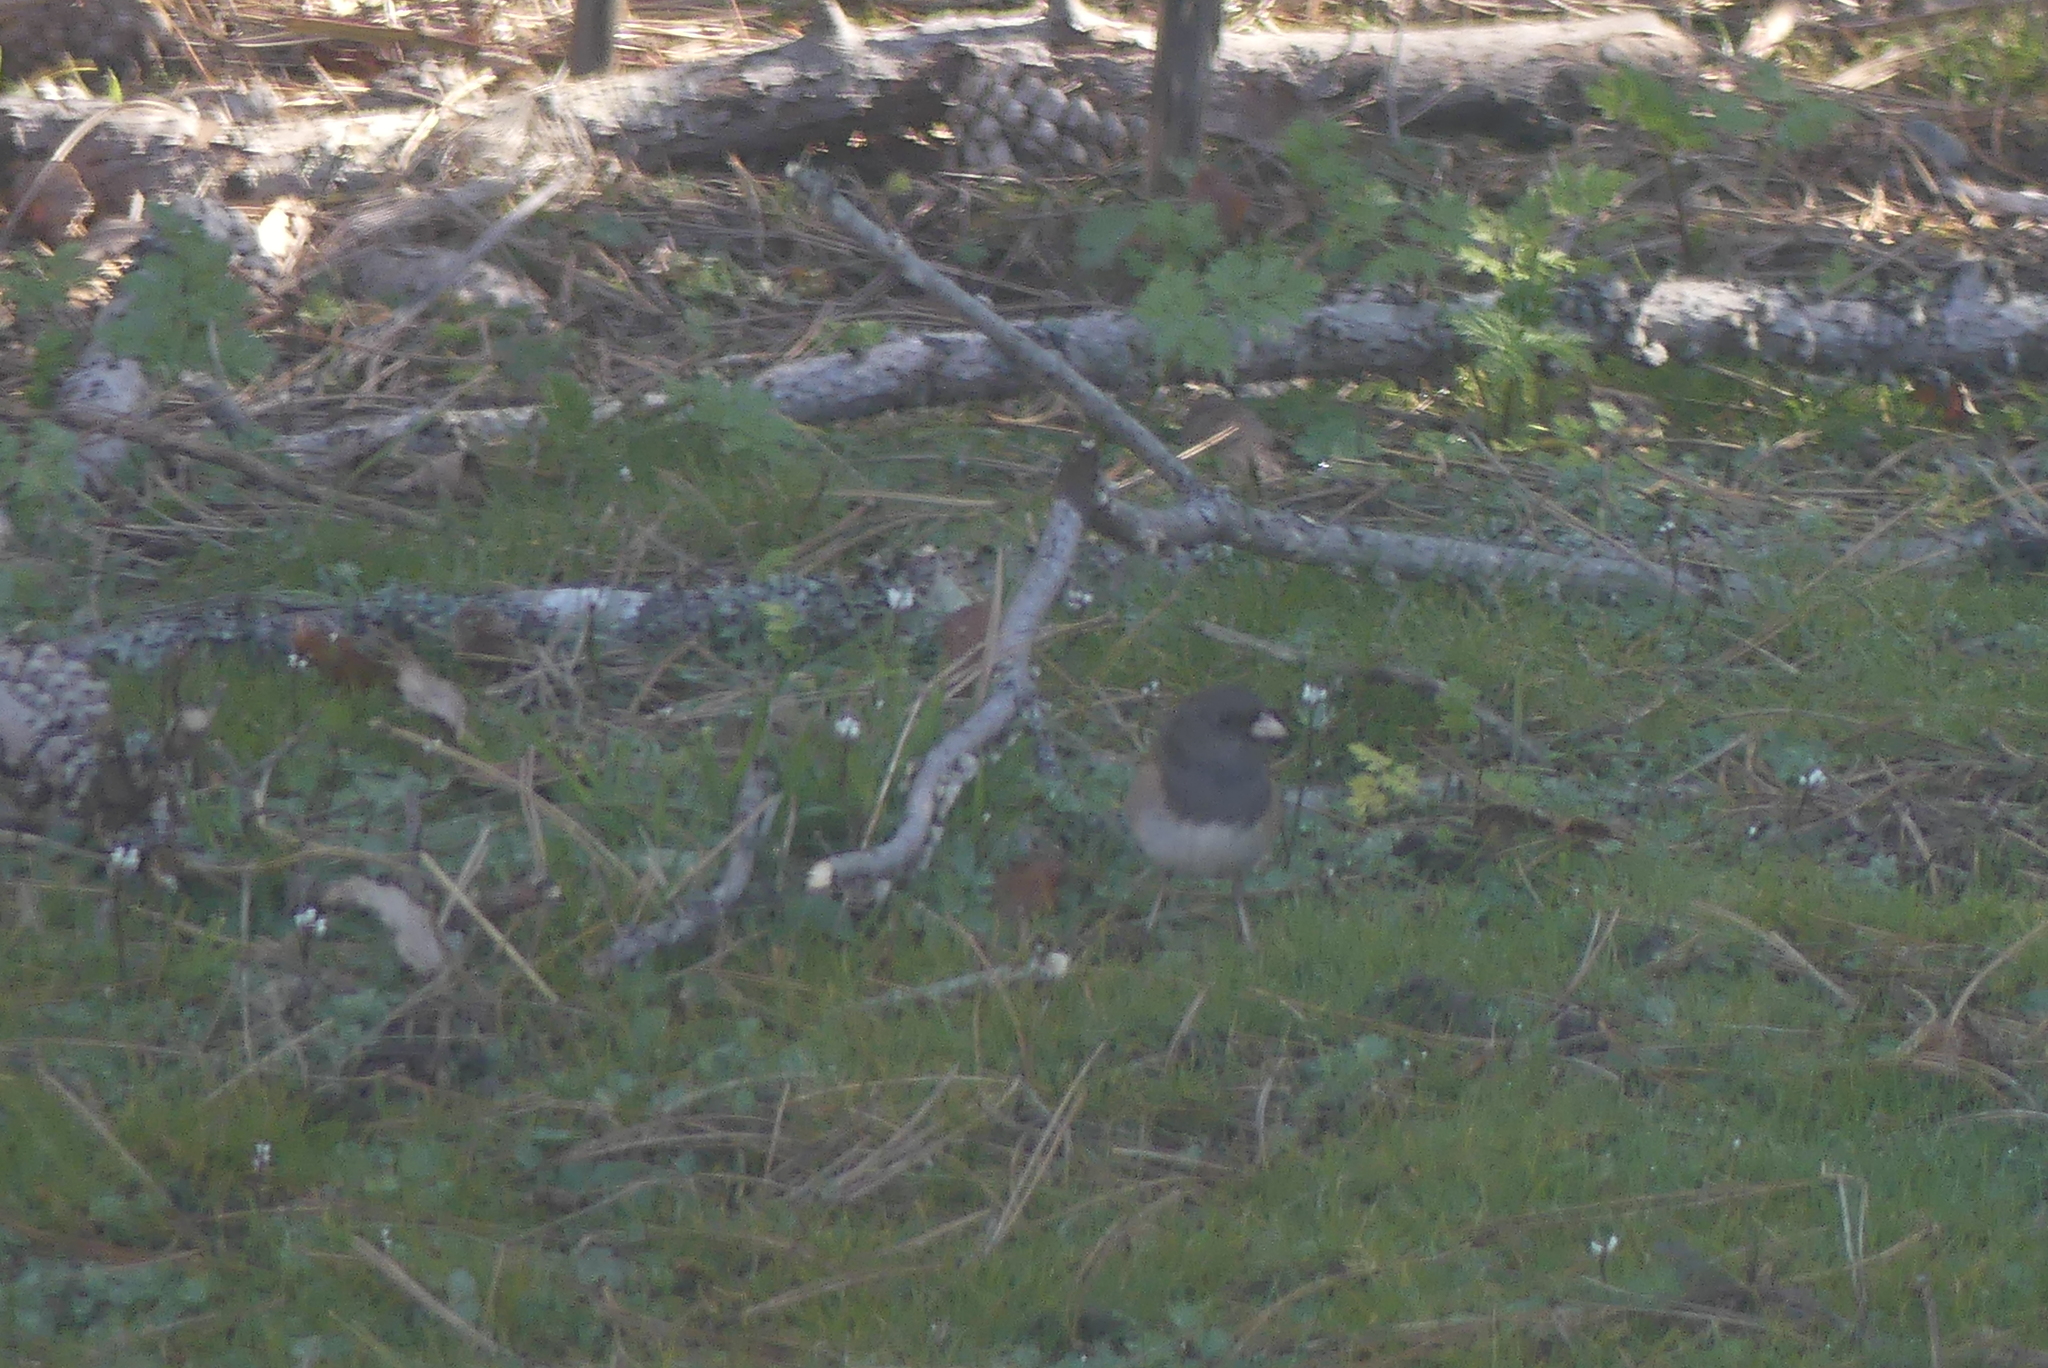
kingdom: Animalia
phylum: Chordata
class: Aves
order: Passeriformes
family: Passerellidae
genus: Junco
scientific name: Junco hyemalis
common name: Dark-eyed junco
